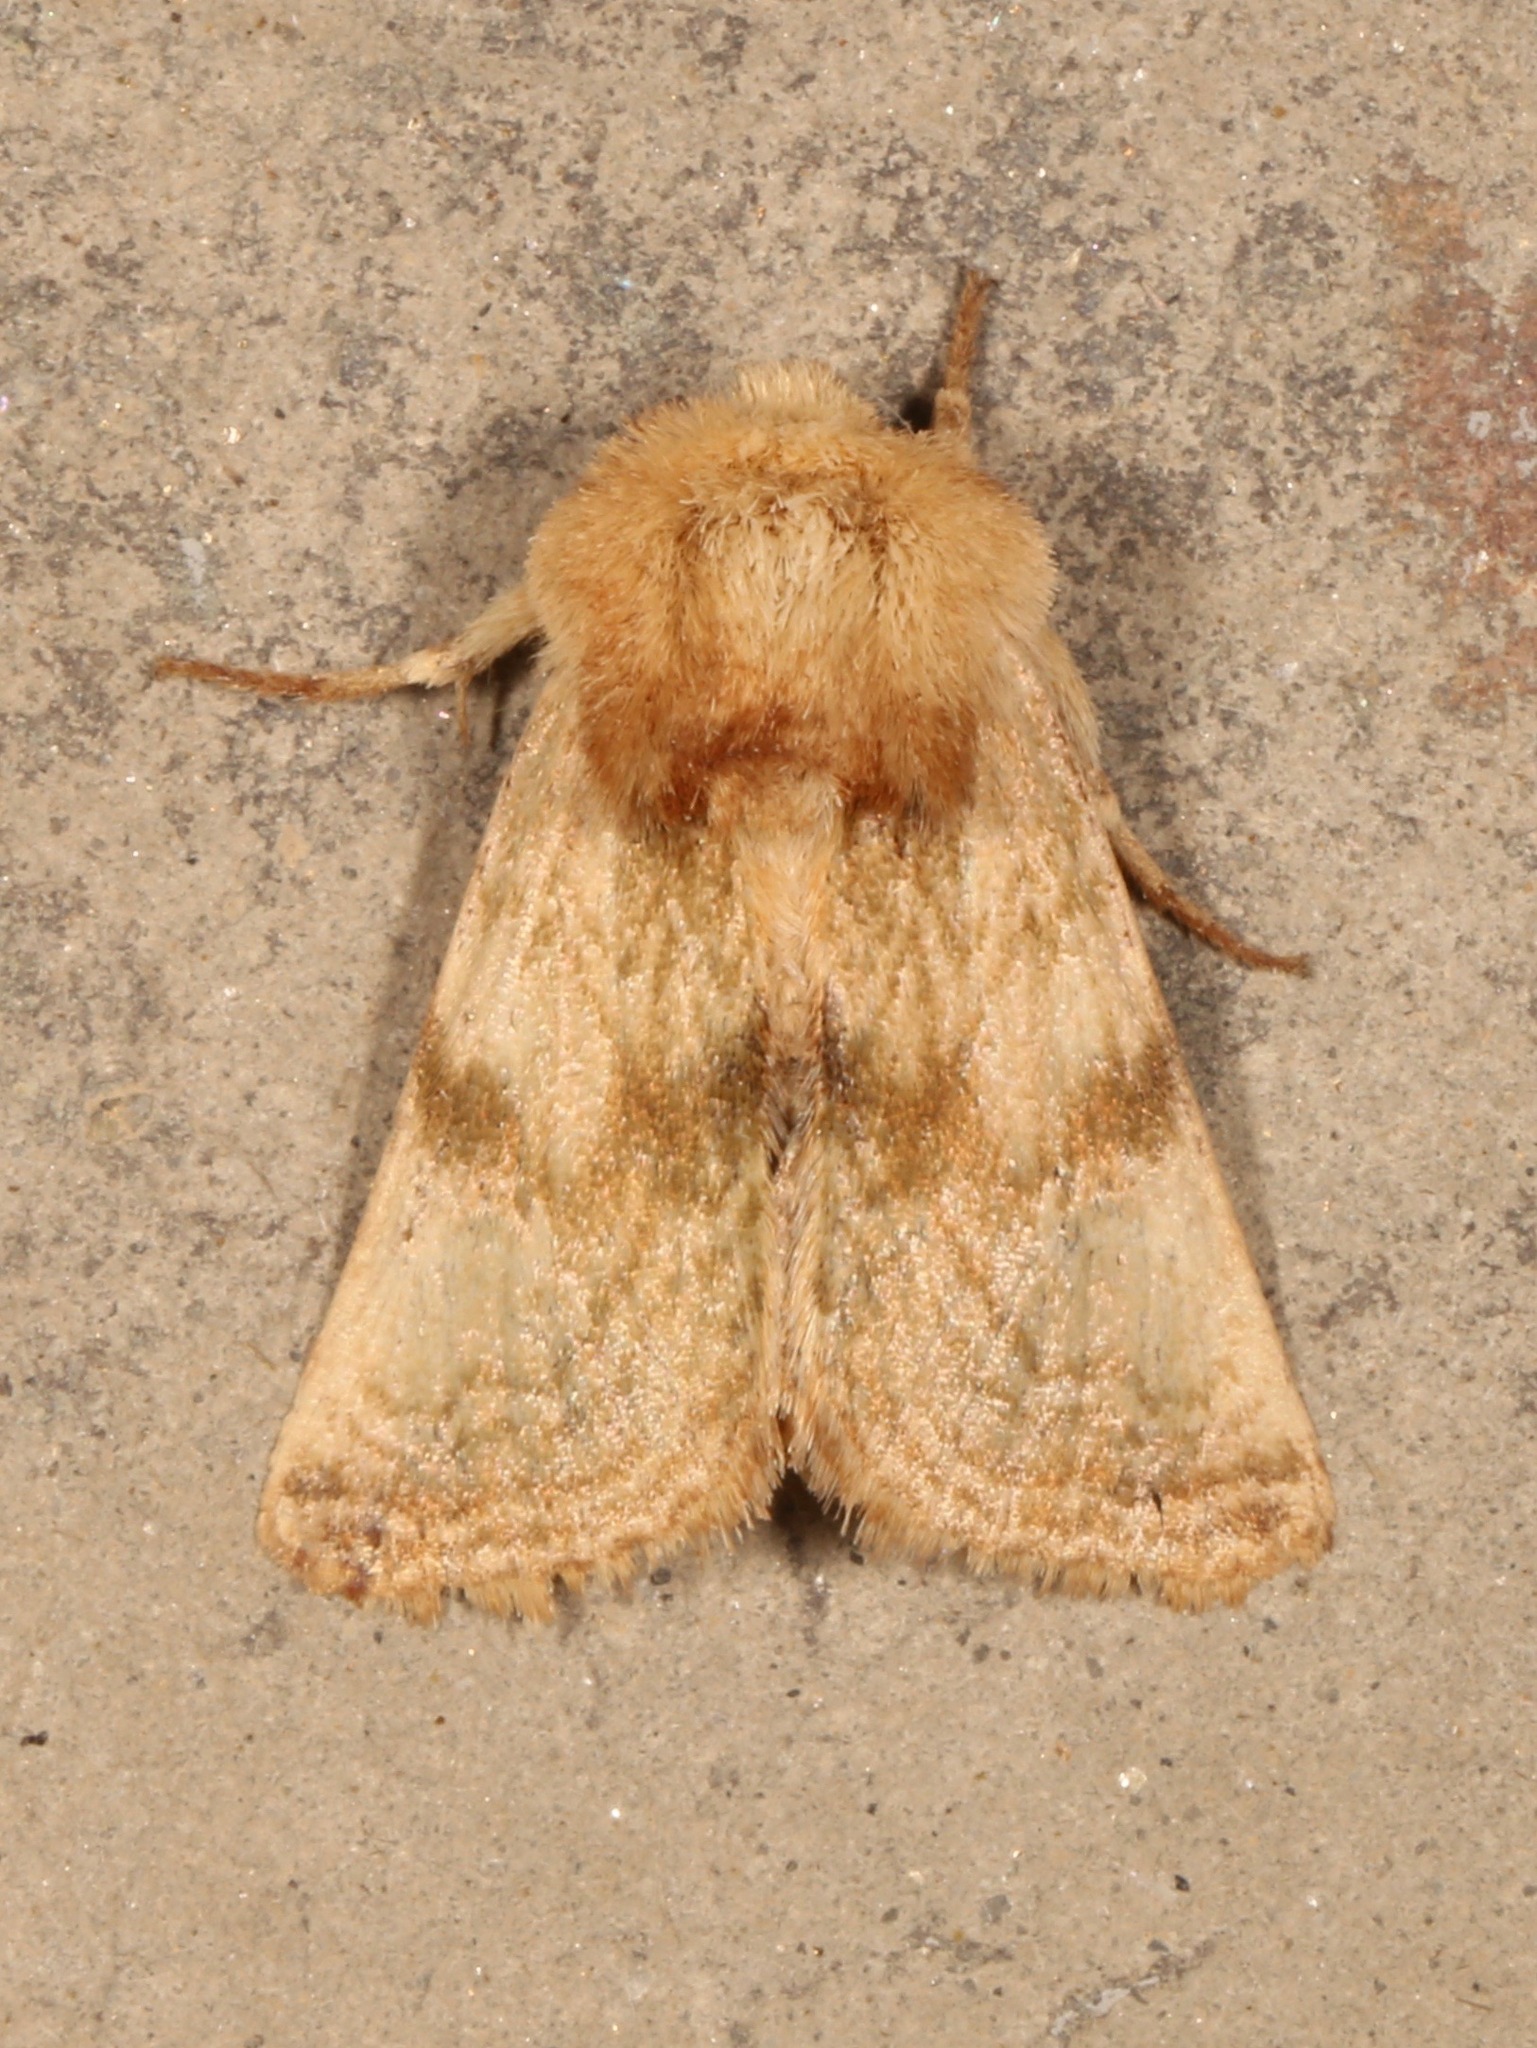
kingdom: Animalia
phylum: Arthropoda
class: Insecta
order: Lepidoptera
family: Noctuidae
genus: Nocloa
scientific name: Nocloa rivulosa
